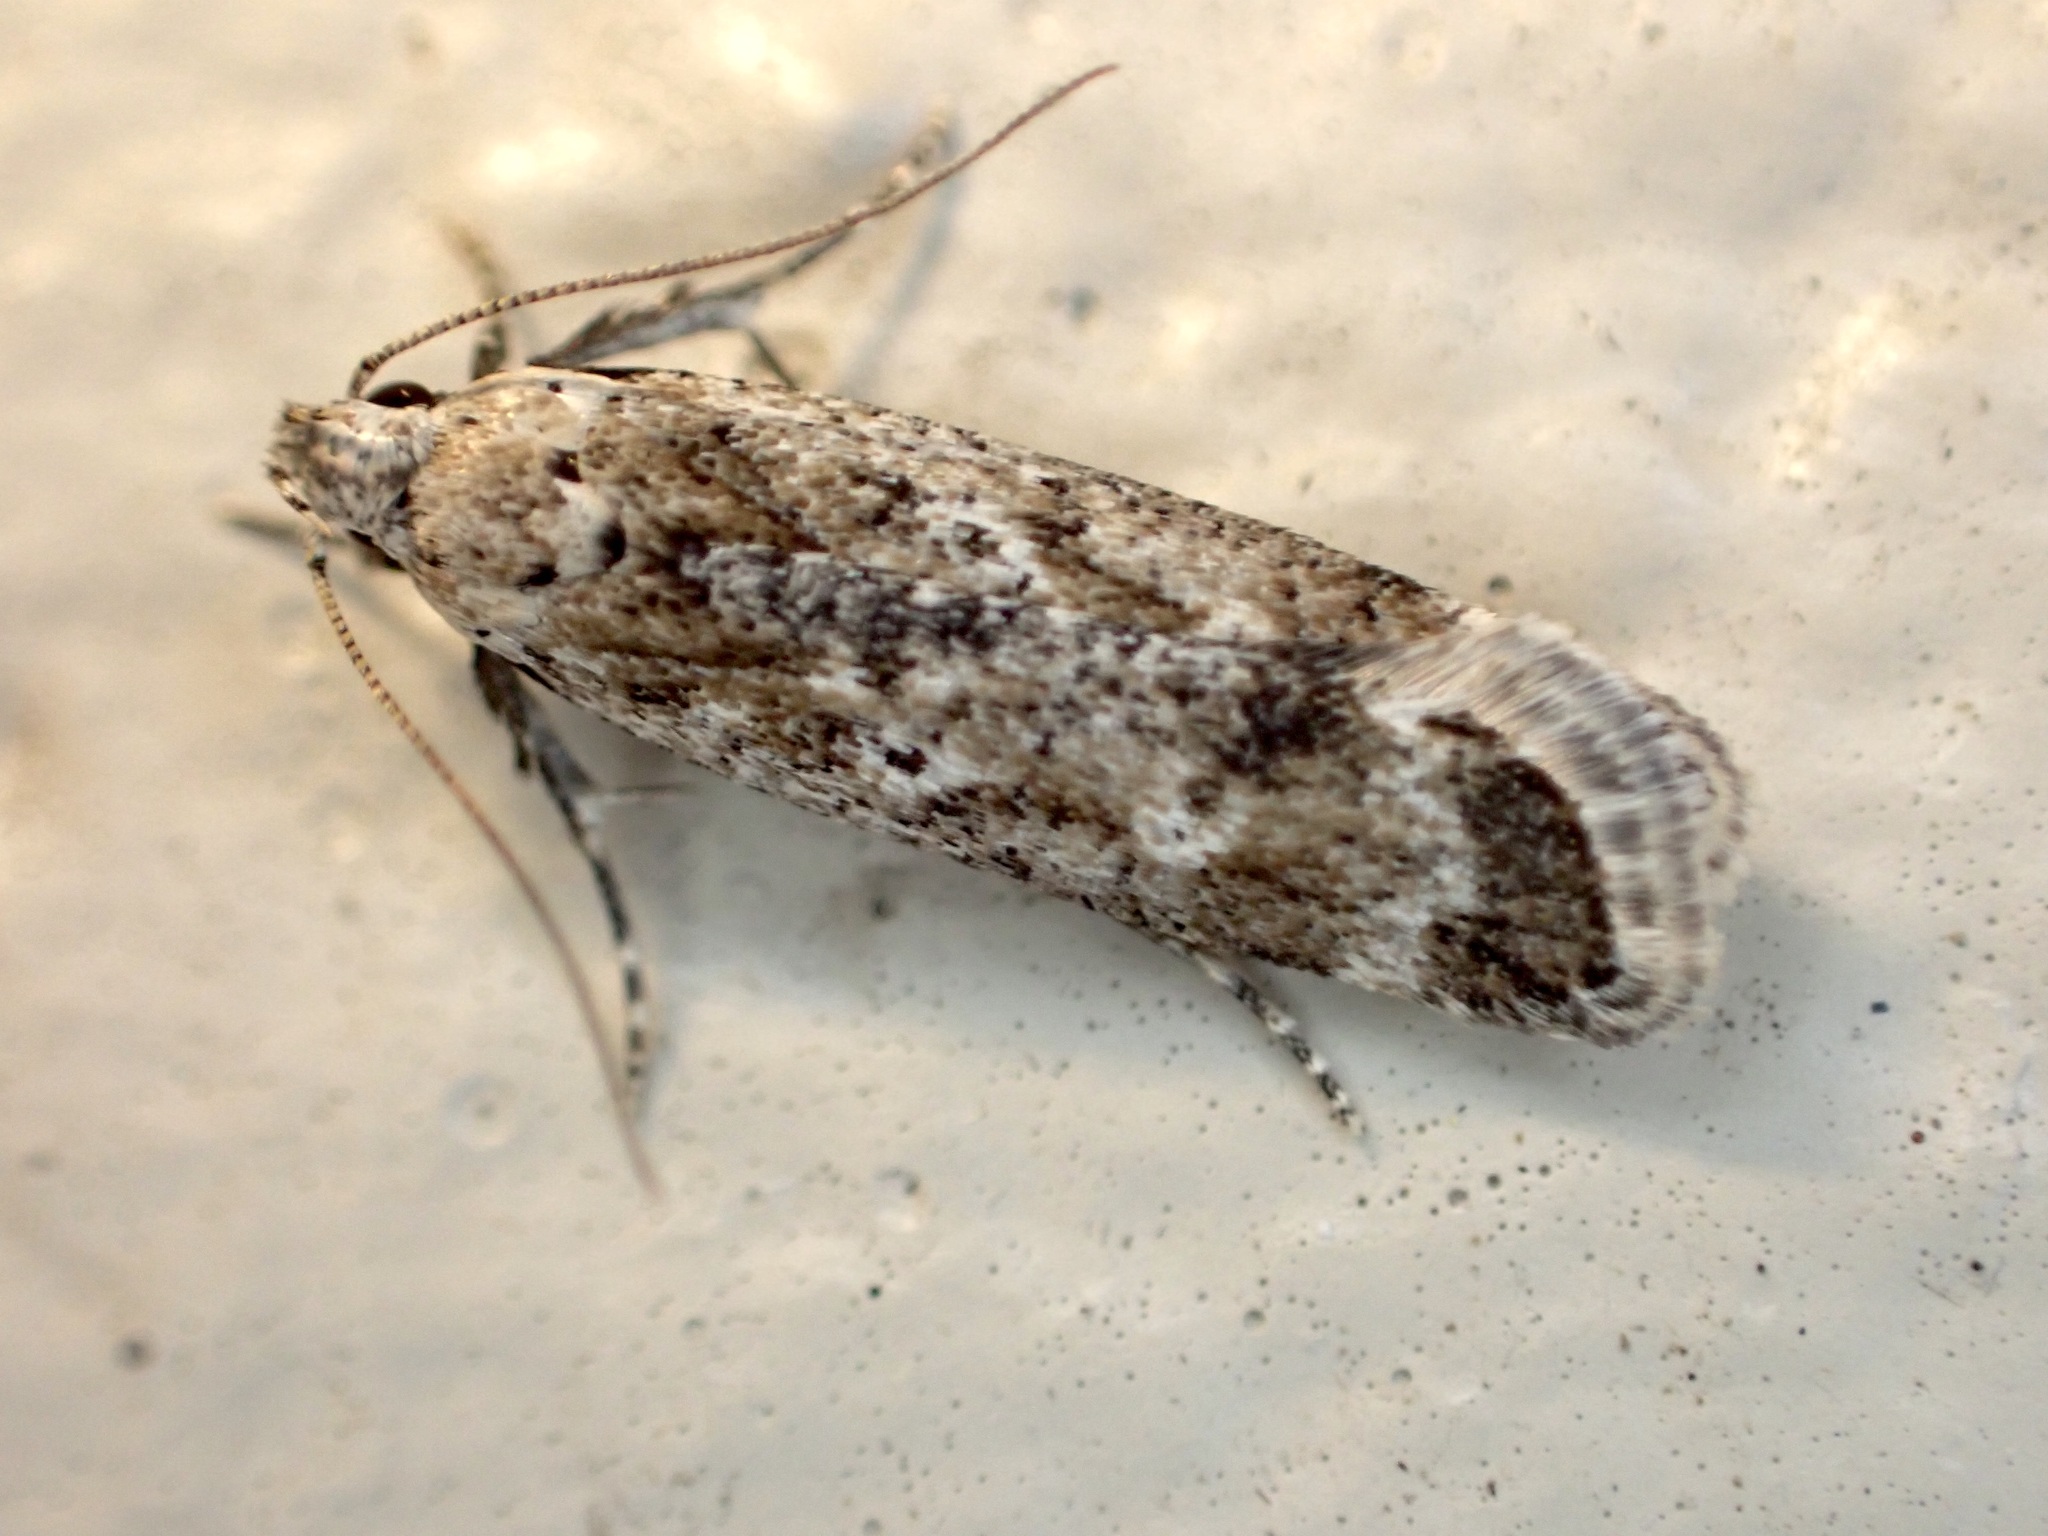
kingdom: Animalia
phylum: Arthropoda
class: Insecta
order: Lepidoptera
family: Gelechiidae
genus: Anisoplaca
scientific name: Anisoplaca achyrota
